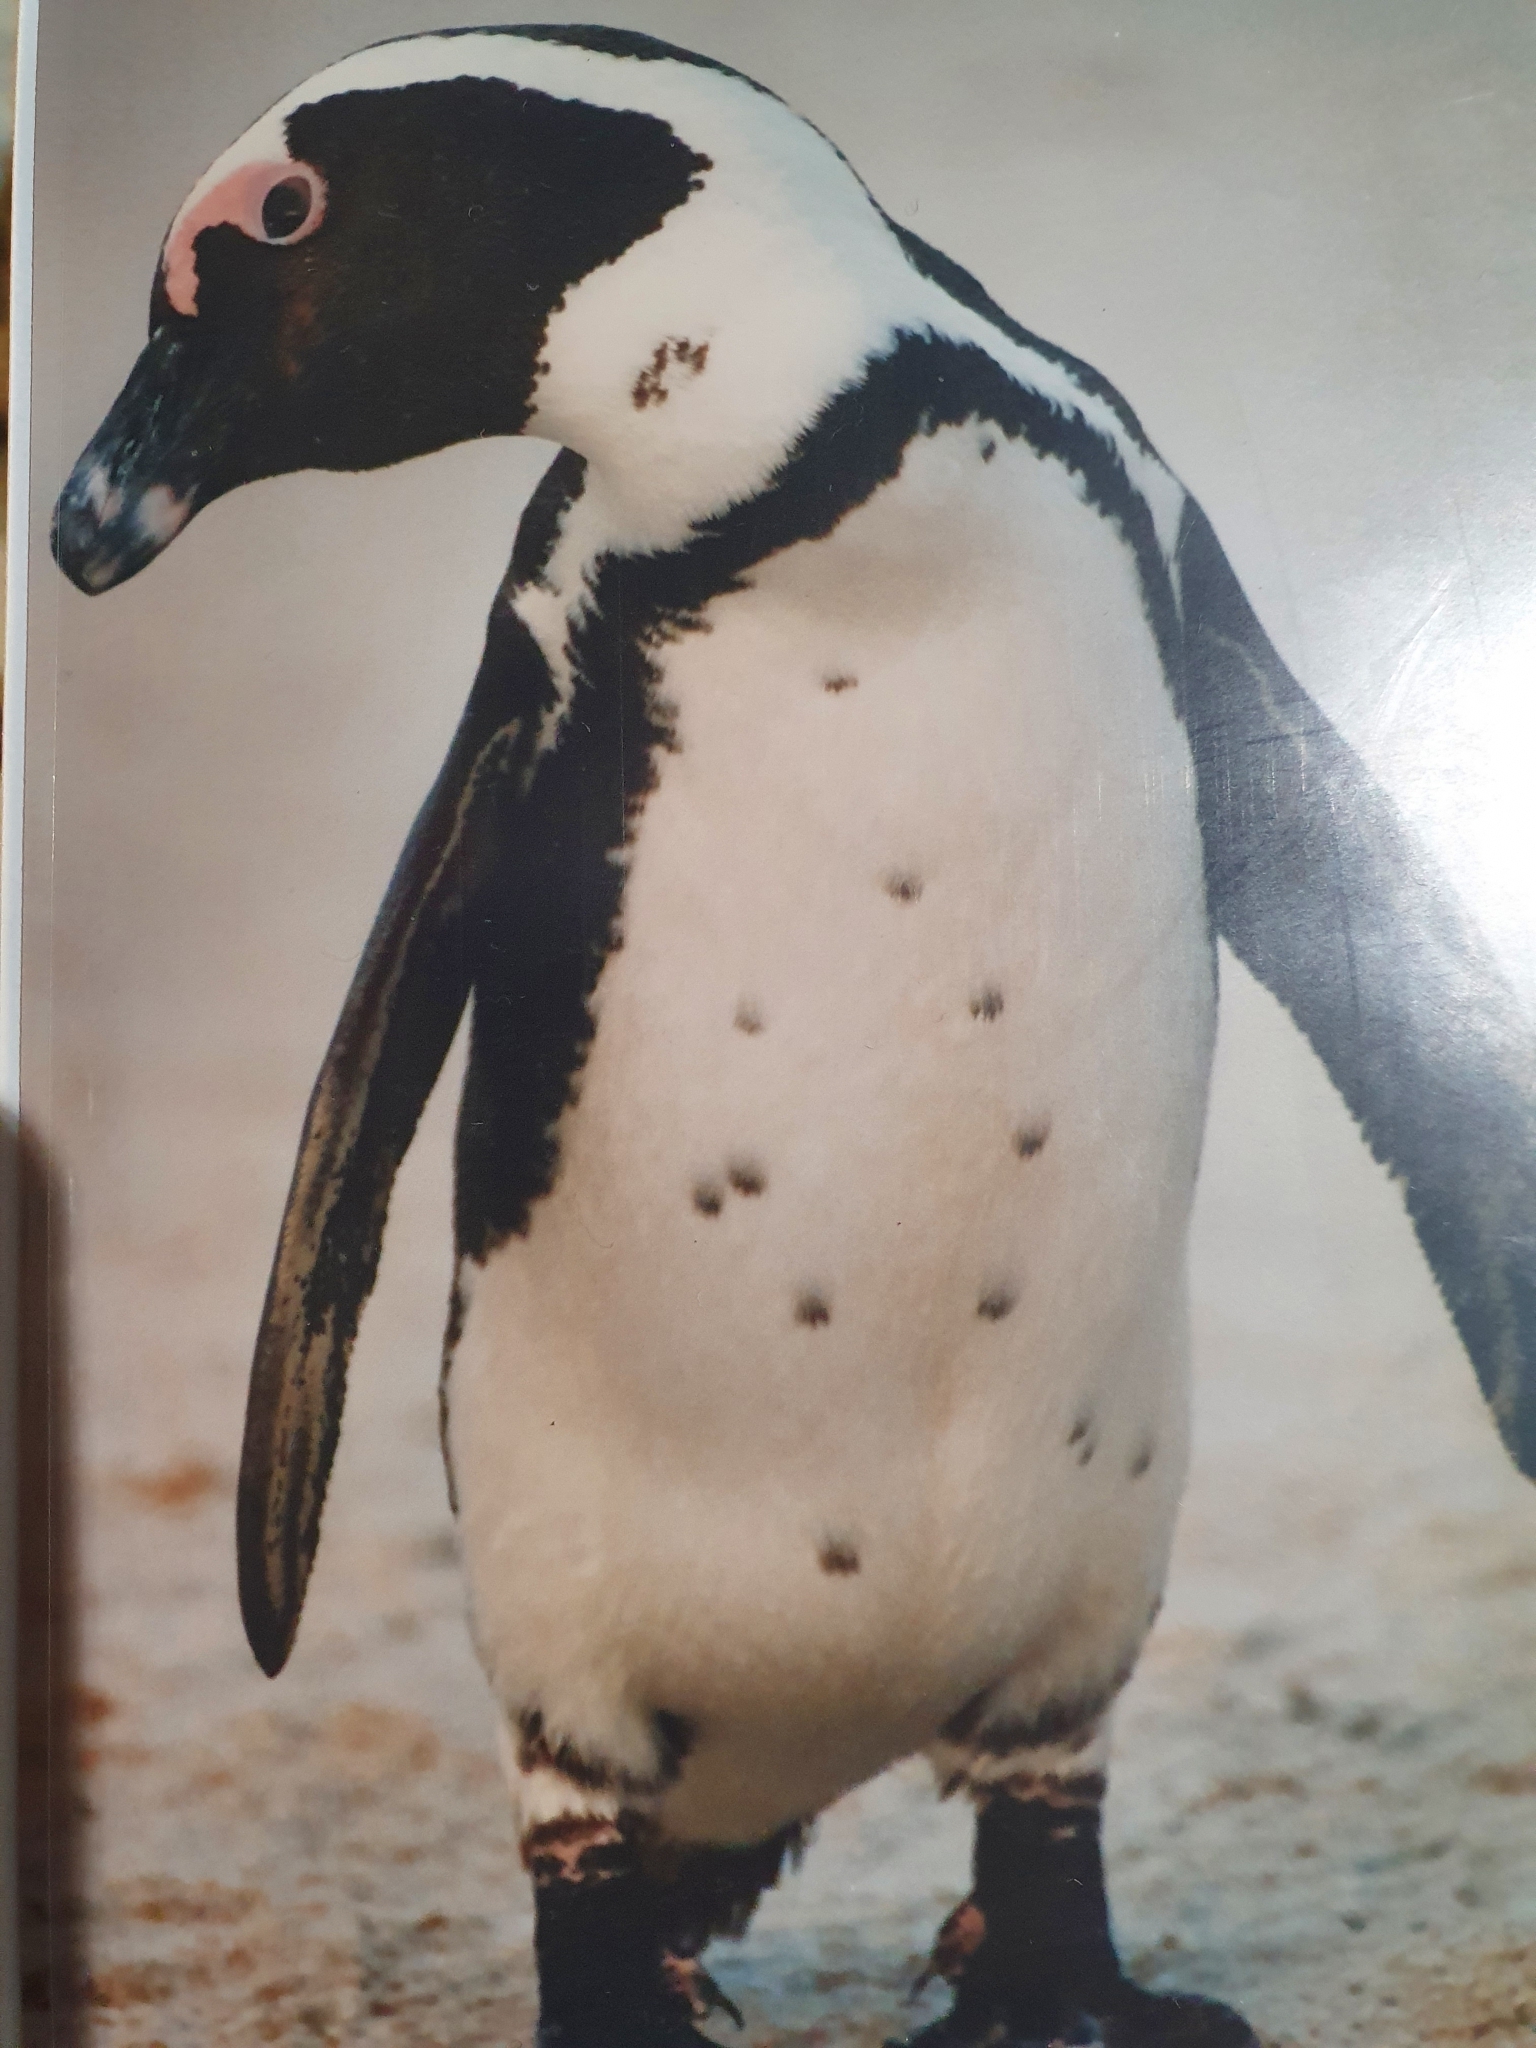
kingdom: Animalia
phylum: Chordata
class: Aves
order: Sphenisciformes
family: Spheniscidae
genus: Spheniscus
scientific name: Spheniscus demersus
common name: African penguin
